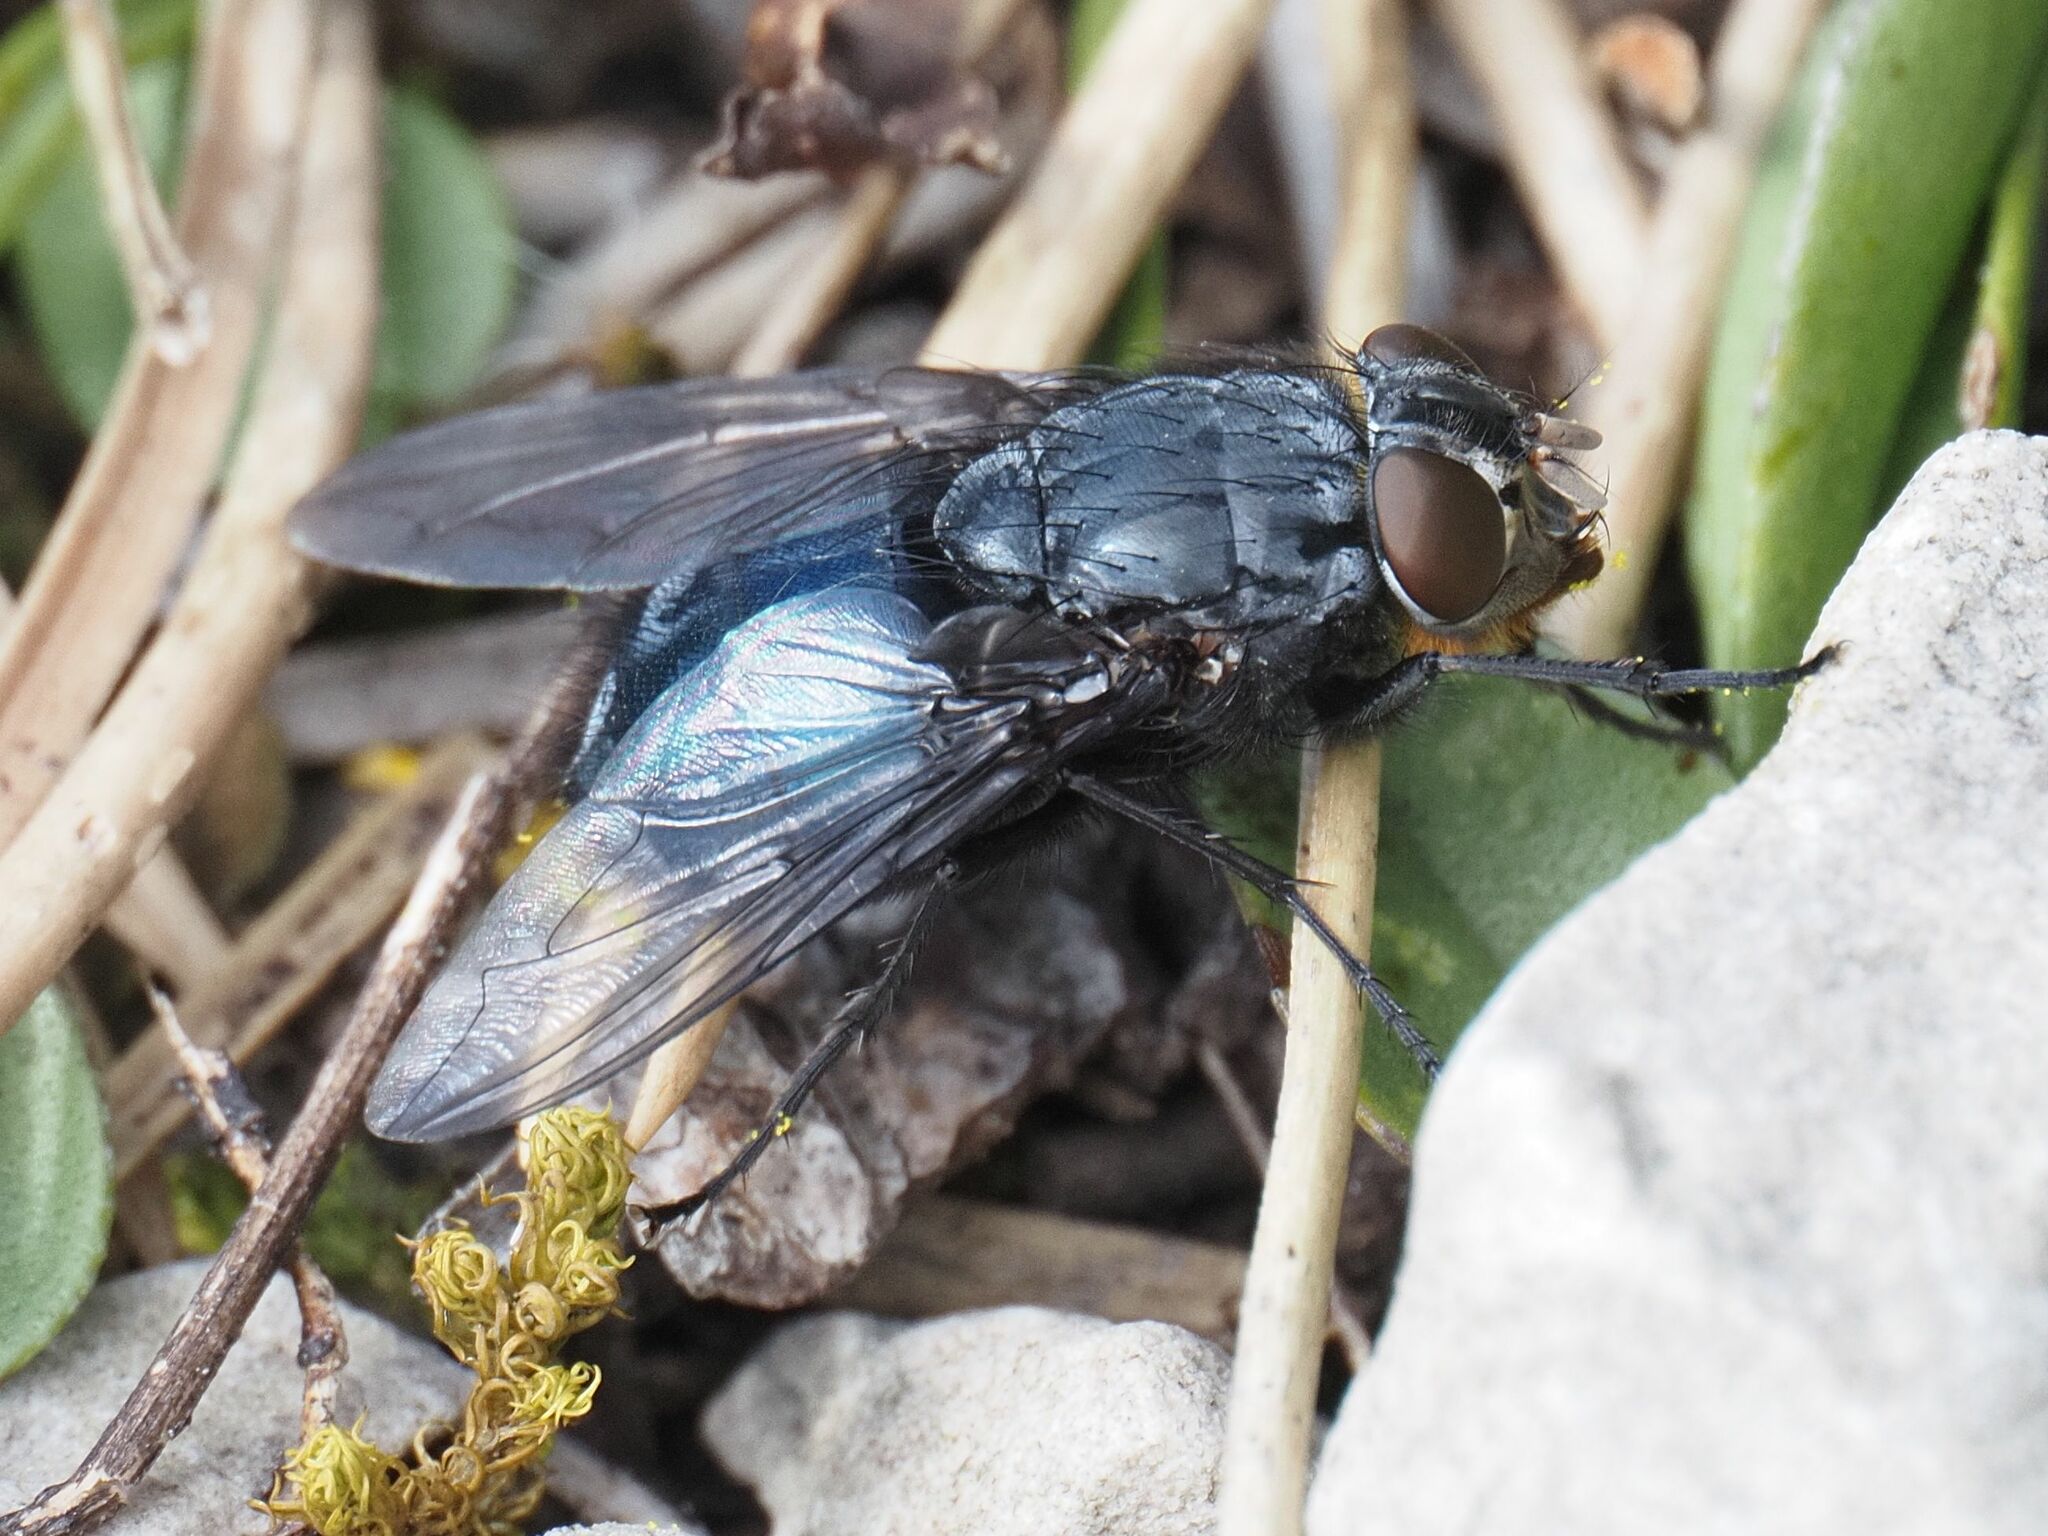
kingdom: Animalia
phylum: Arthropoda
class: Insecta
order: Diptera
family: Calliphoridae
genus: Calliphora
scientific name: Calliphora vomitoria
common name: Blue bottle fly
